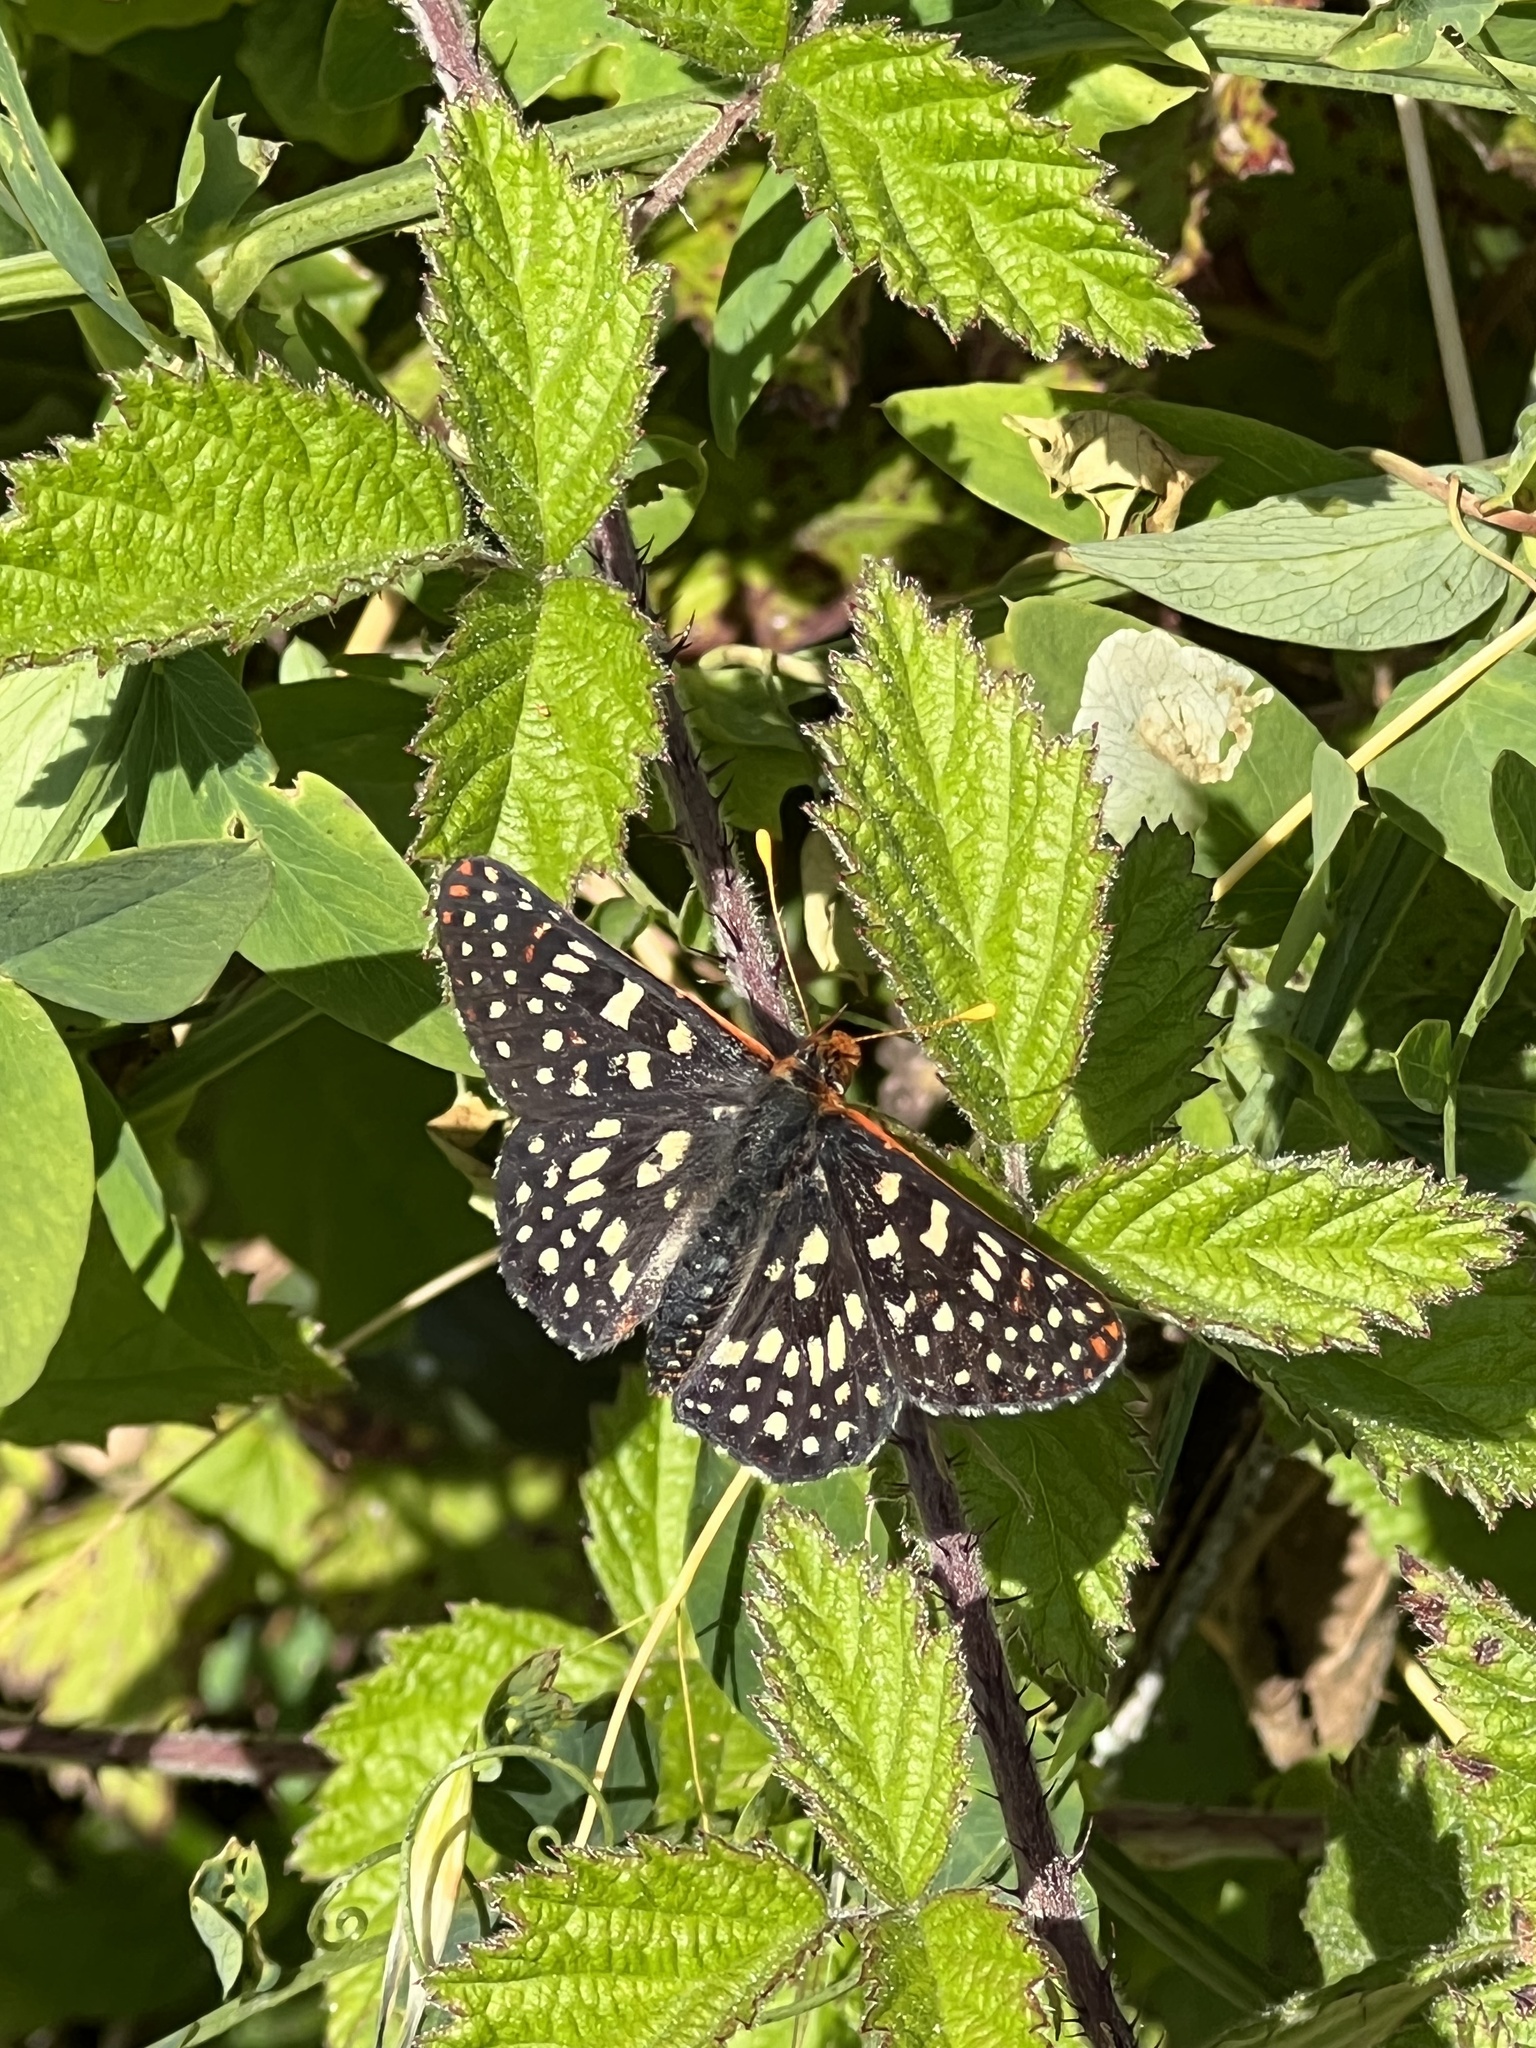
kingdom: Animalia
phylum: Arthropoda
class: Insecta
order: Lepidoptera
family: Nymphalidae
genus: Occidryas
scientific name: Occidryas chalcedona
